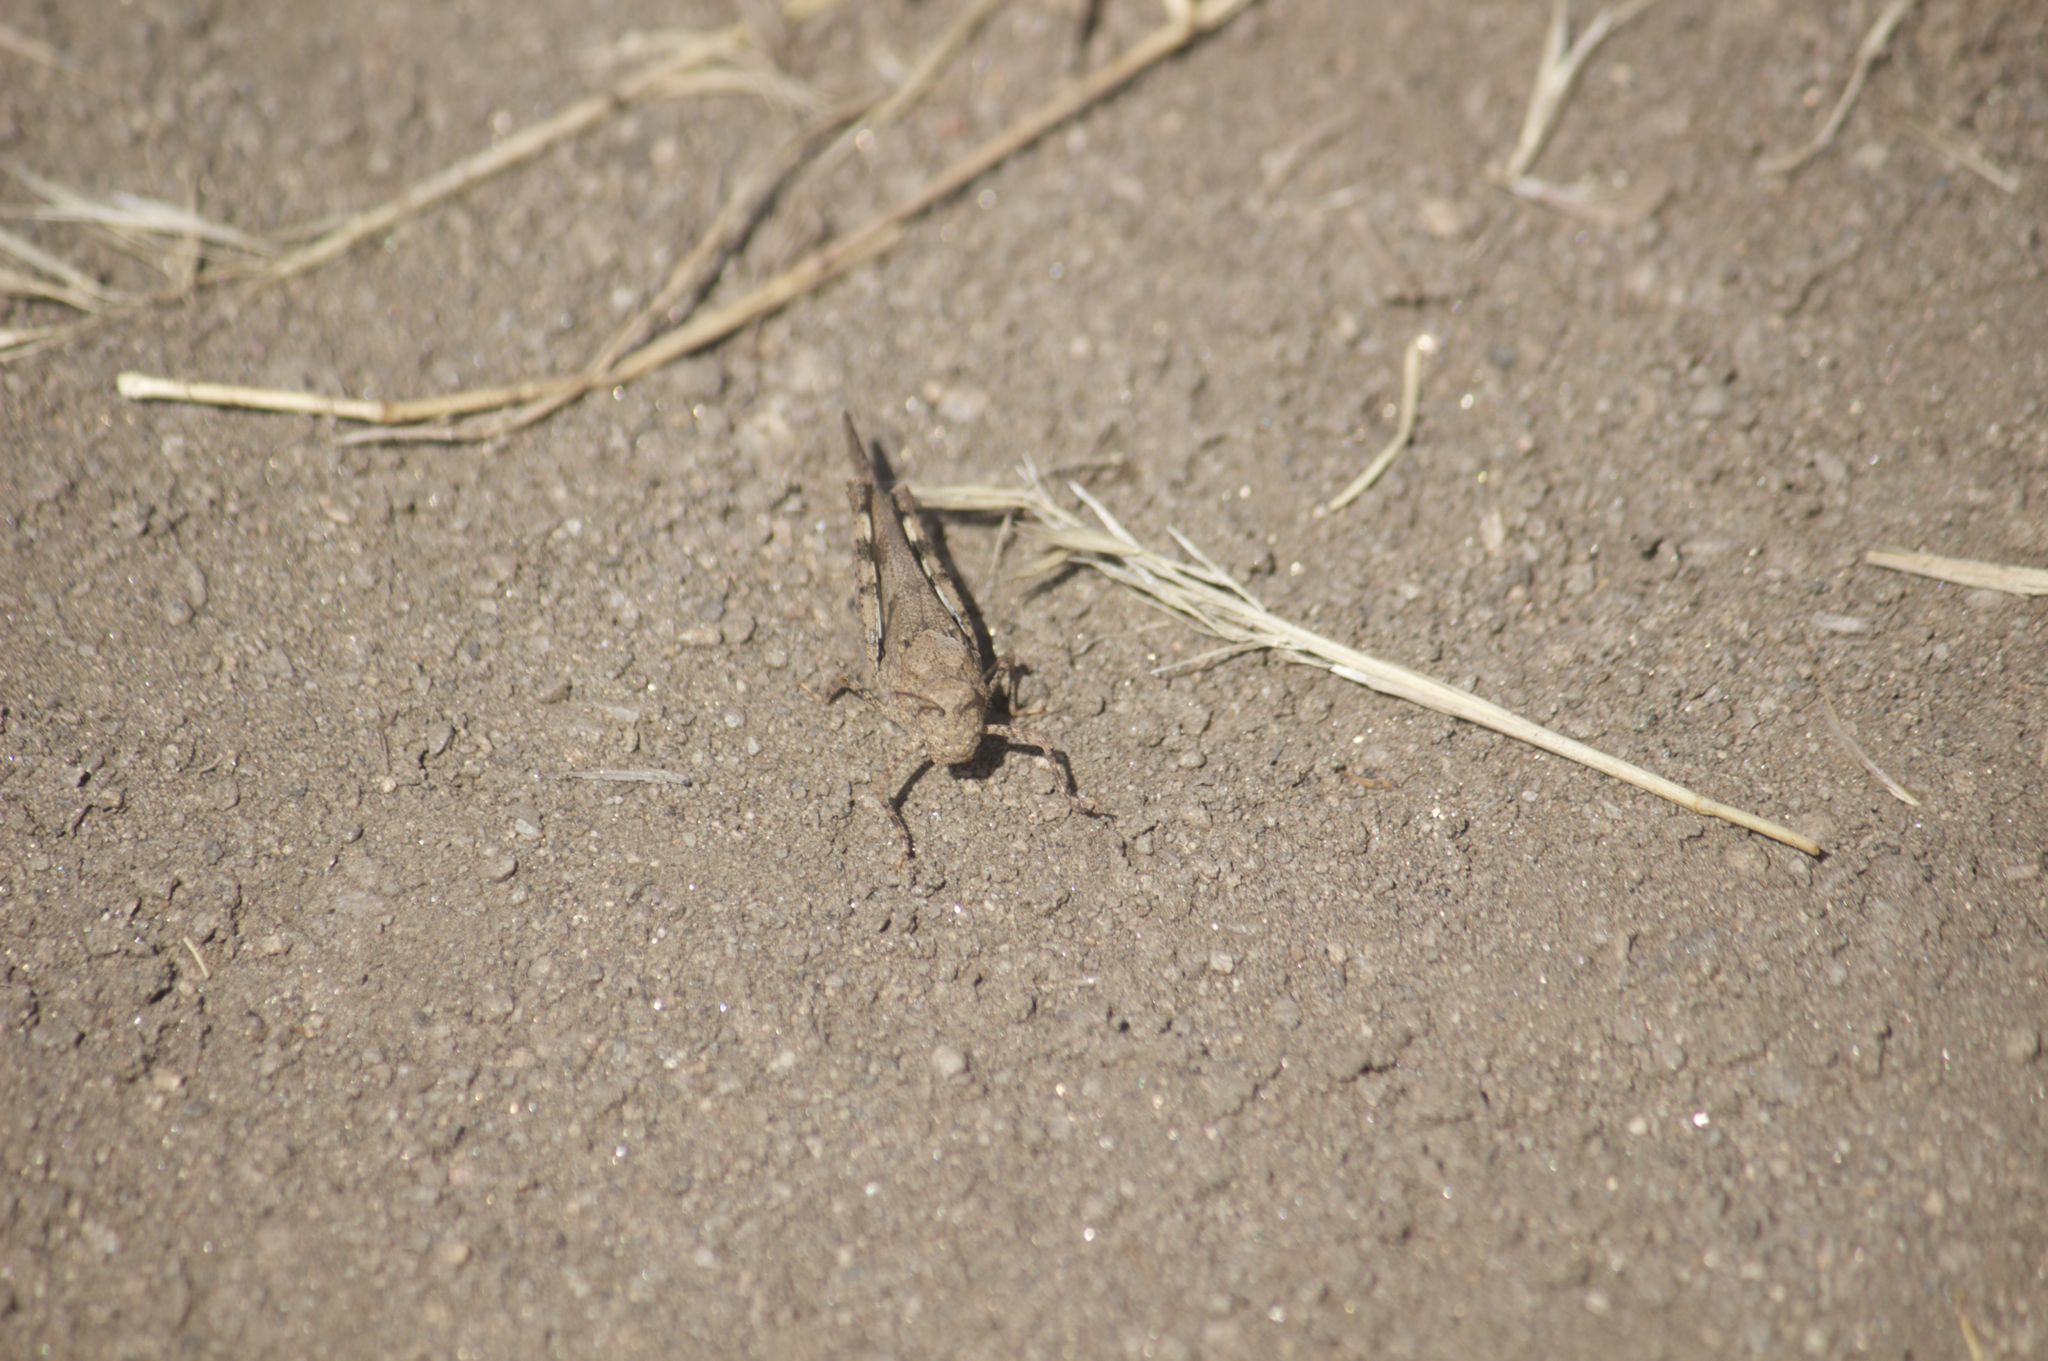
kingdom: Animalia
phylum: Arthropoda
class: Insecta
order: Orthoptera
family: Acrididae
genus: Trimerotropis
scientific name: Trimerotropis fontana
